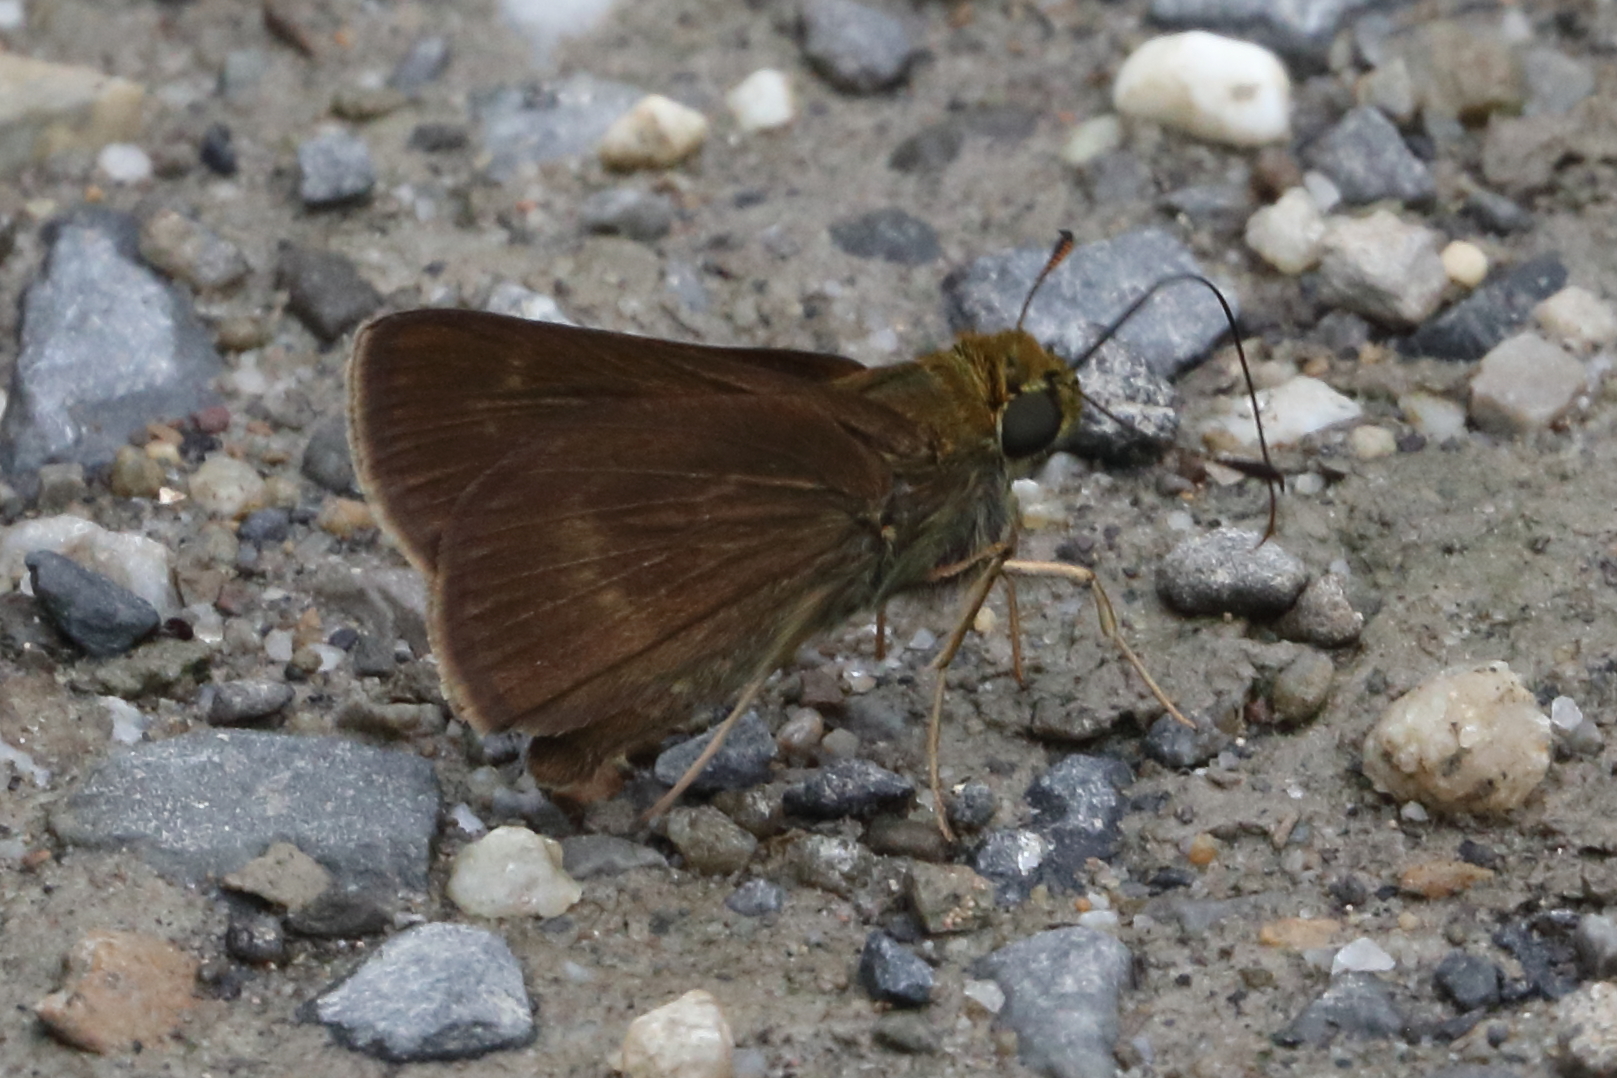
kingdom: Animalia
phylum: Arthropoda
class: Insecta
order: Lepidoptera
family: Hesperiidae
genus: Euphyes
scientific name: Euphyes vestris
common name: Dun skipper
